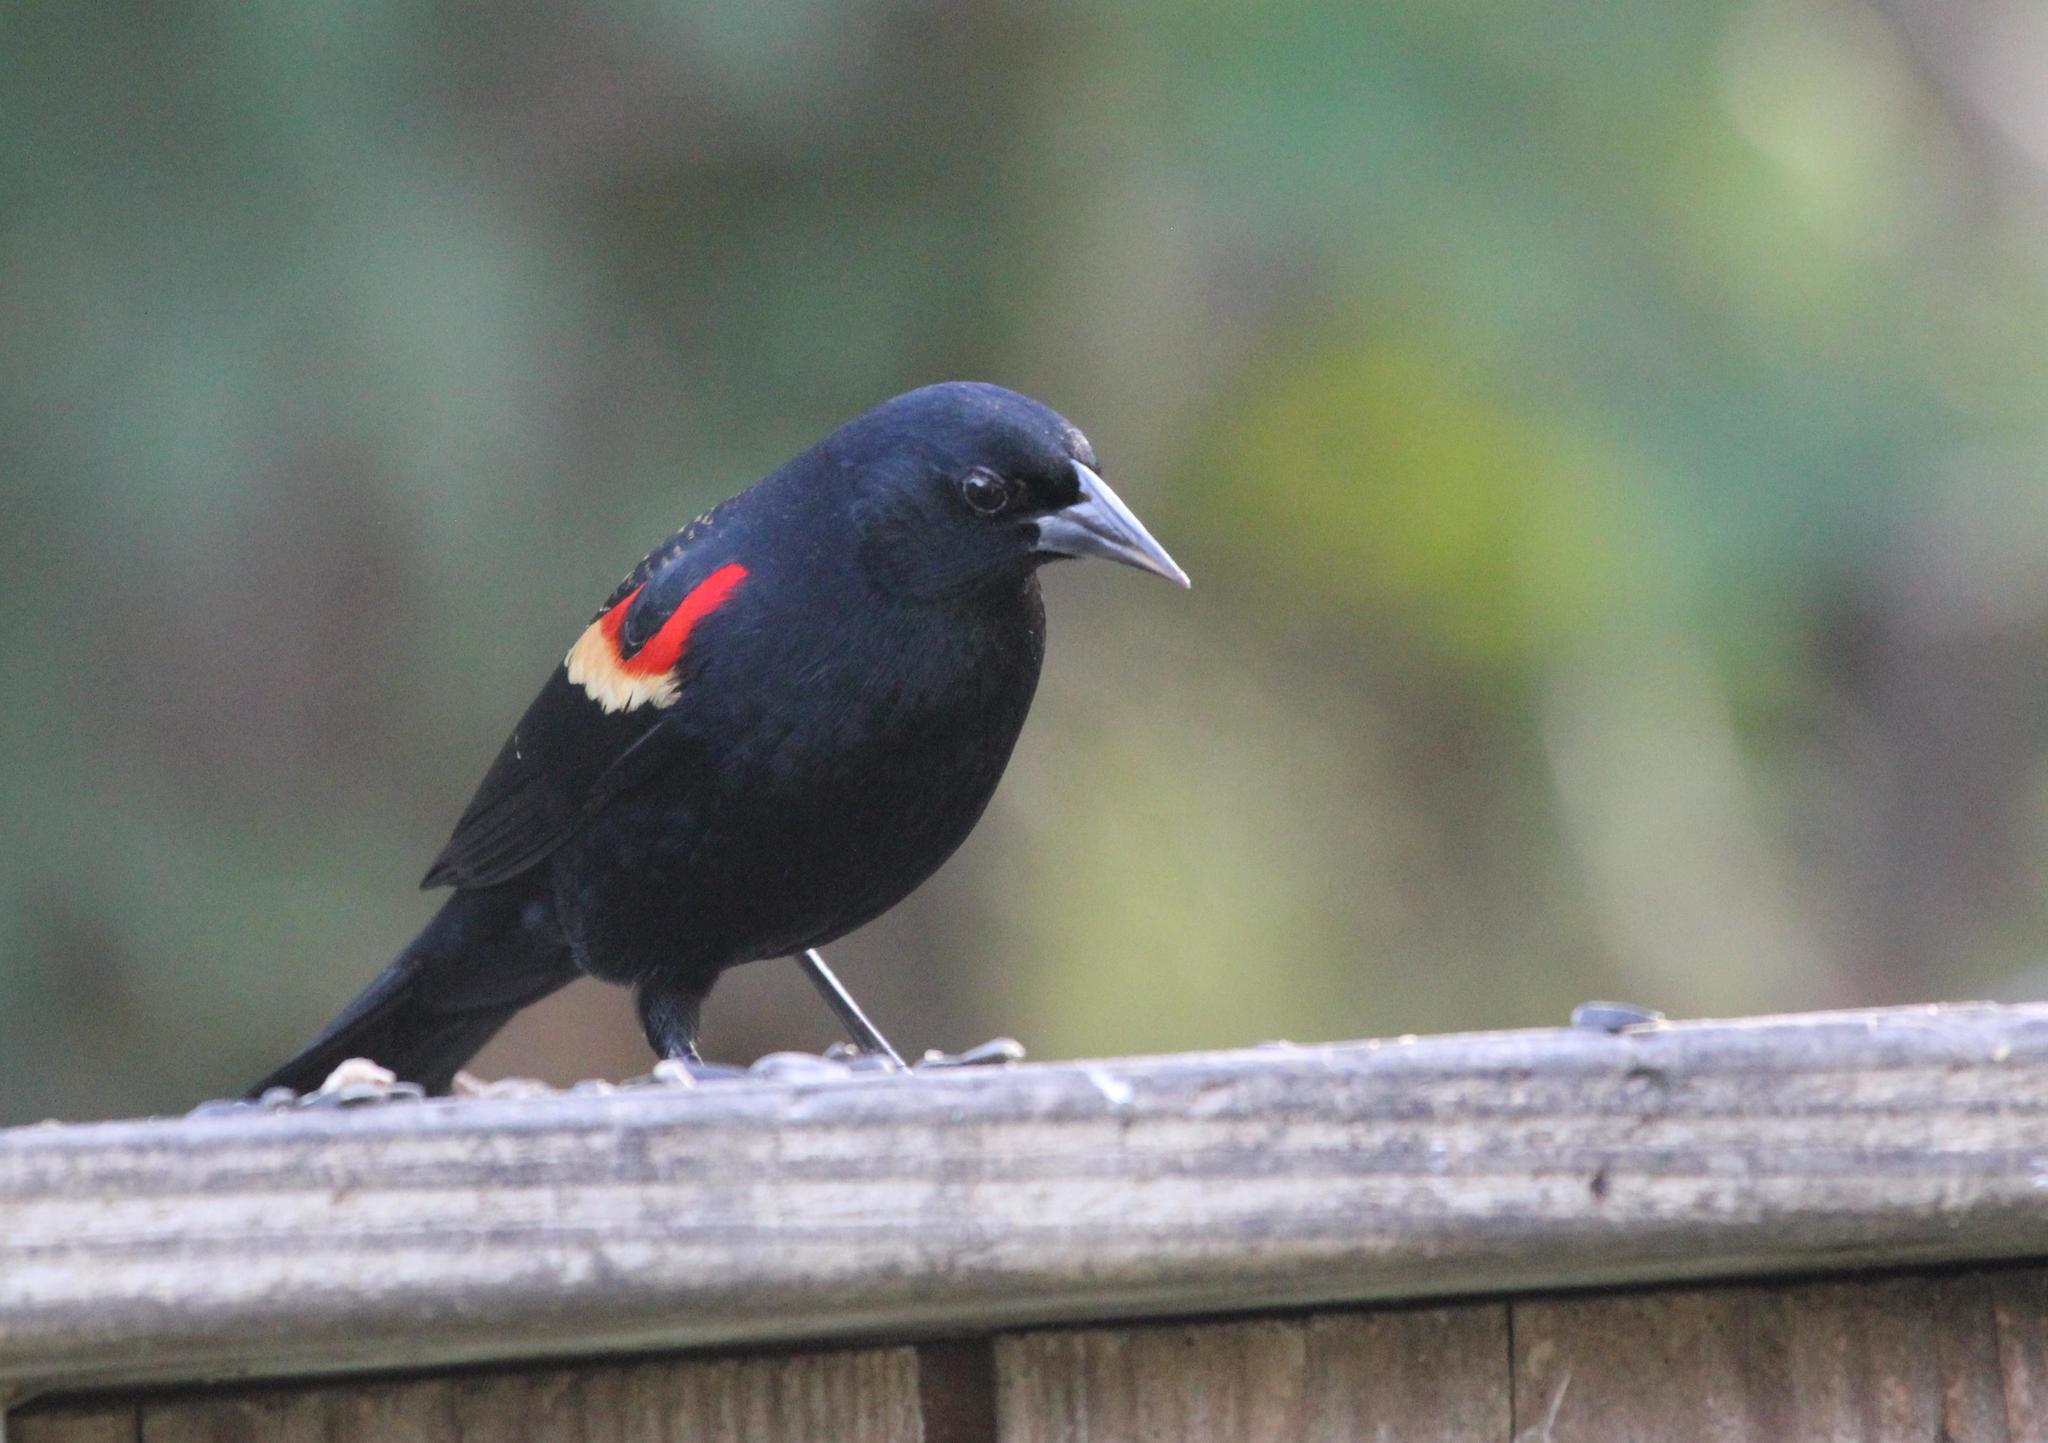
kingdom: Animalia
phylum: Chordata
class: Aves
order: Passeriformes
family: Icteridae
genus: Agelaius
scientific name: Agelaius phoeniceus
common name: Red-winged blackbird
